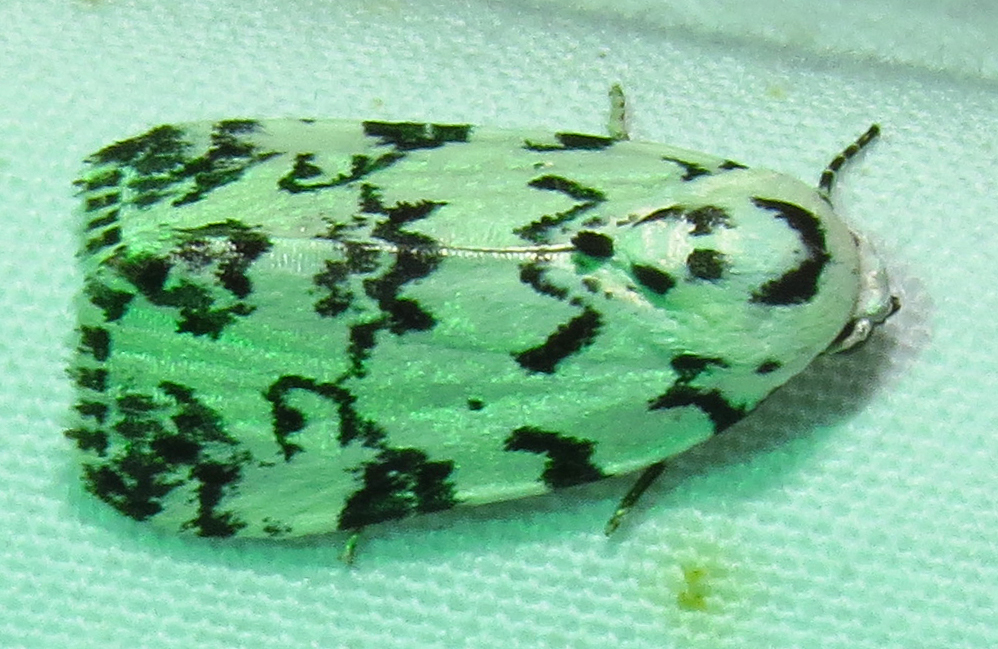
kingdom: Animalia
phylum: Arthropoda
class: Insecta
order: Lepidoptera
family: Noctuidae
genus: Polygrammate
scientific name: Polygrammate hebraeicum
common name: Hebrew moth
